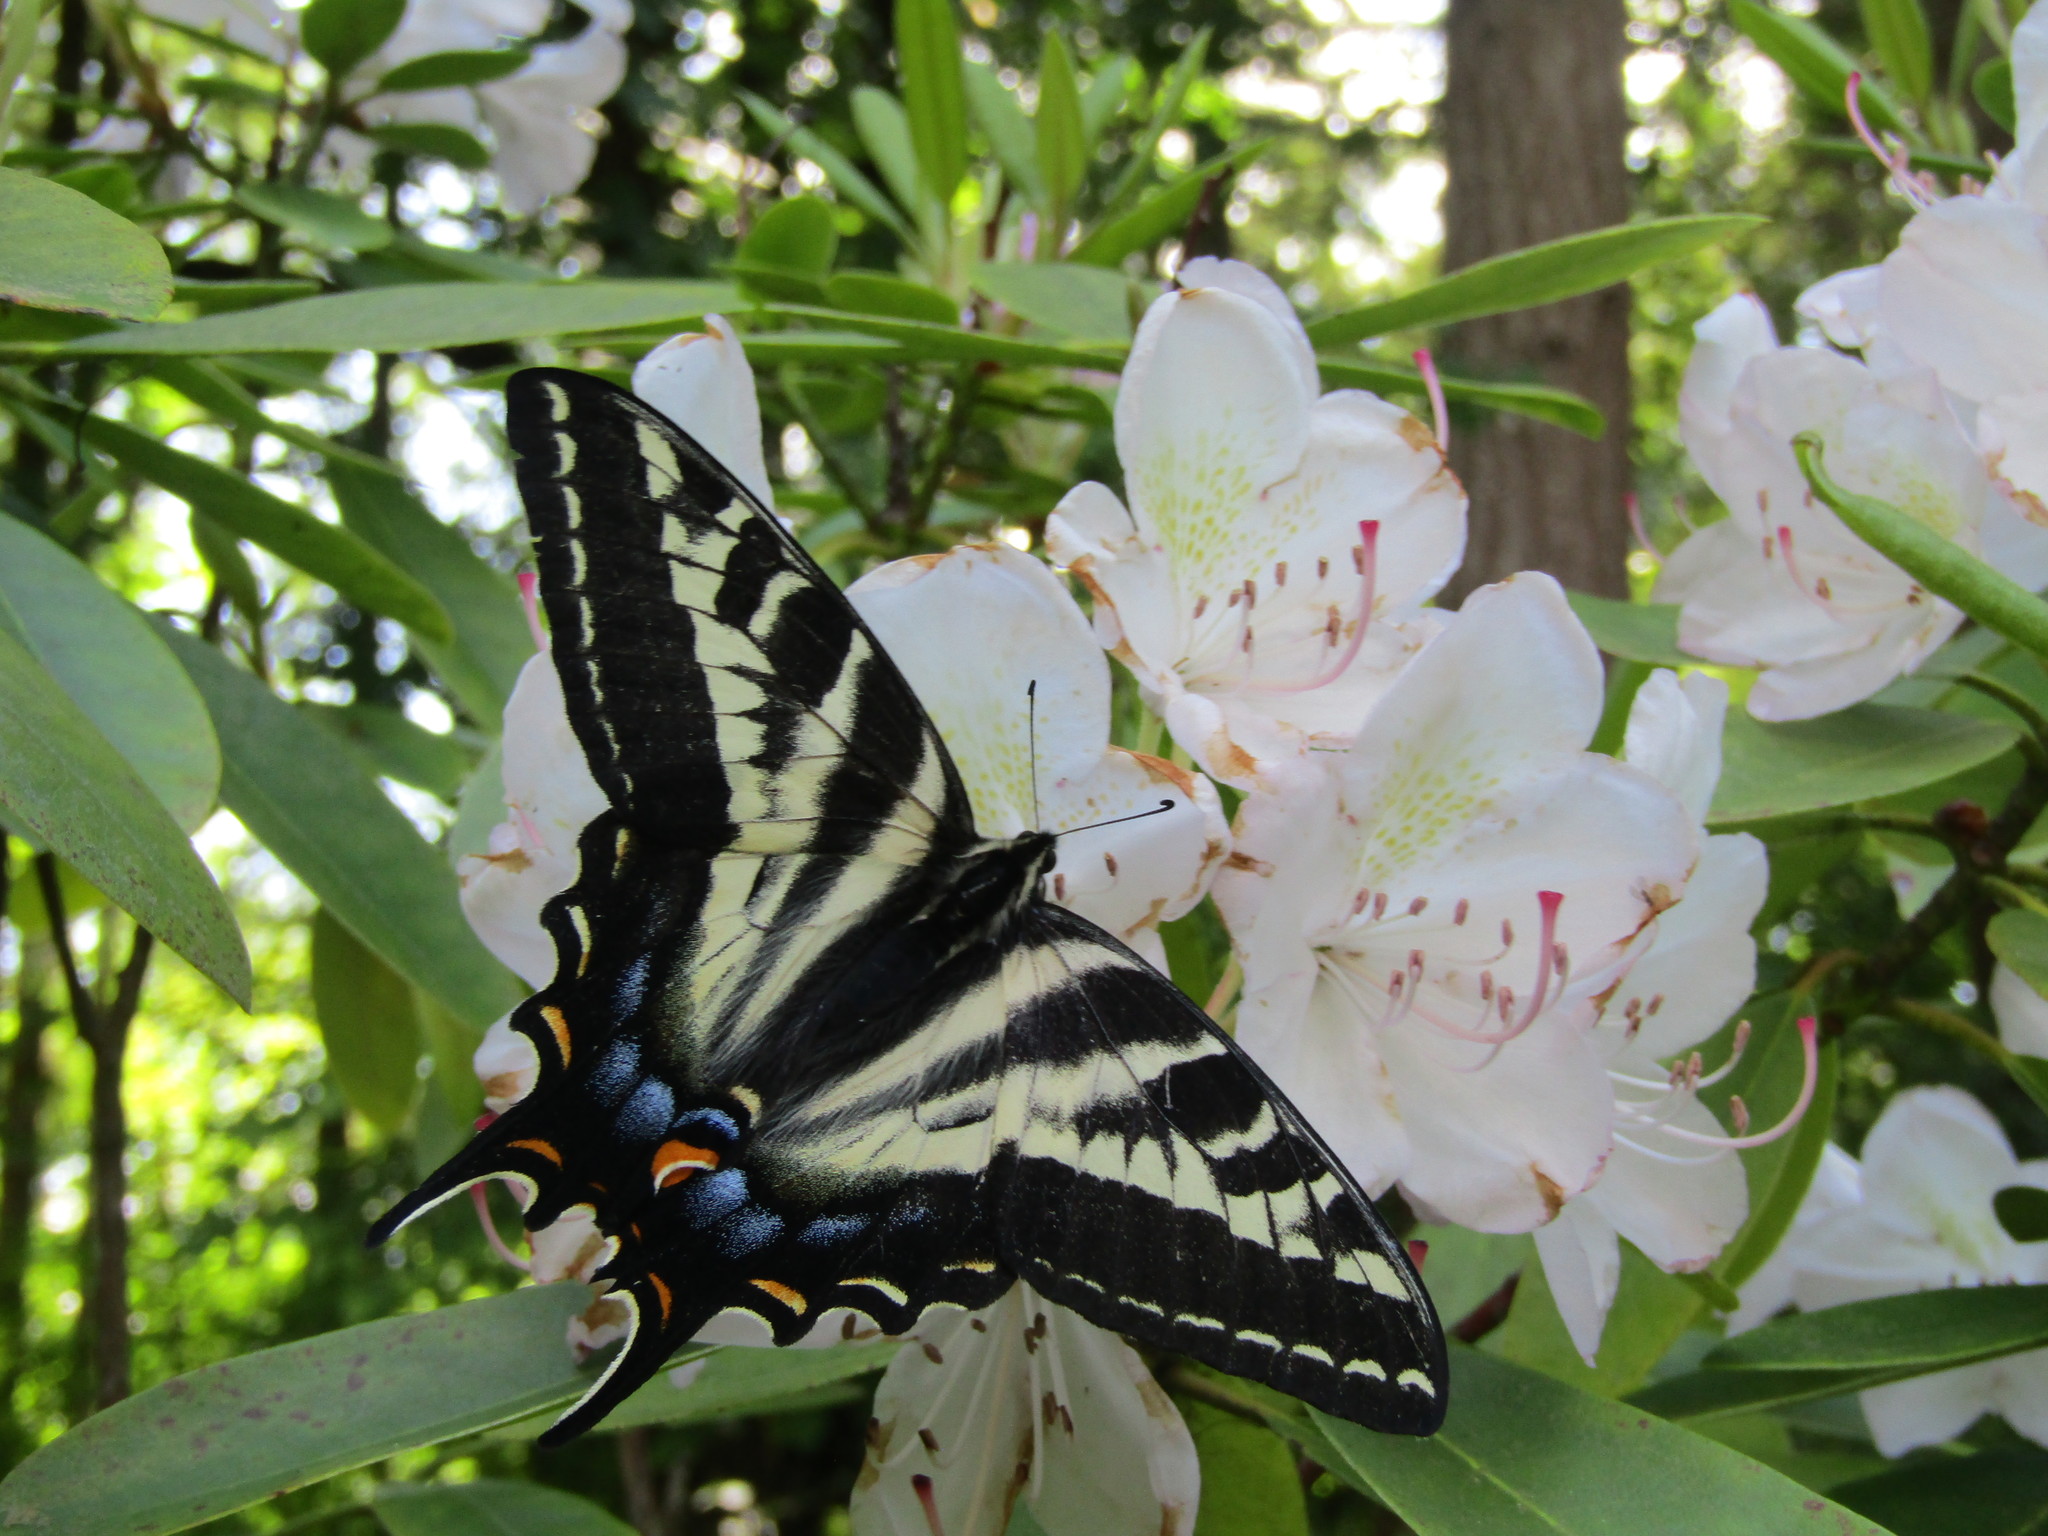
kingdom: Animalia
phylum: Arthropoda
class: Insecta
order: Lepidoptera
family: Papilionidae
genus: Papilio
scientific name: Papilio eurymedon
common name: Pale tiger swallowtail
